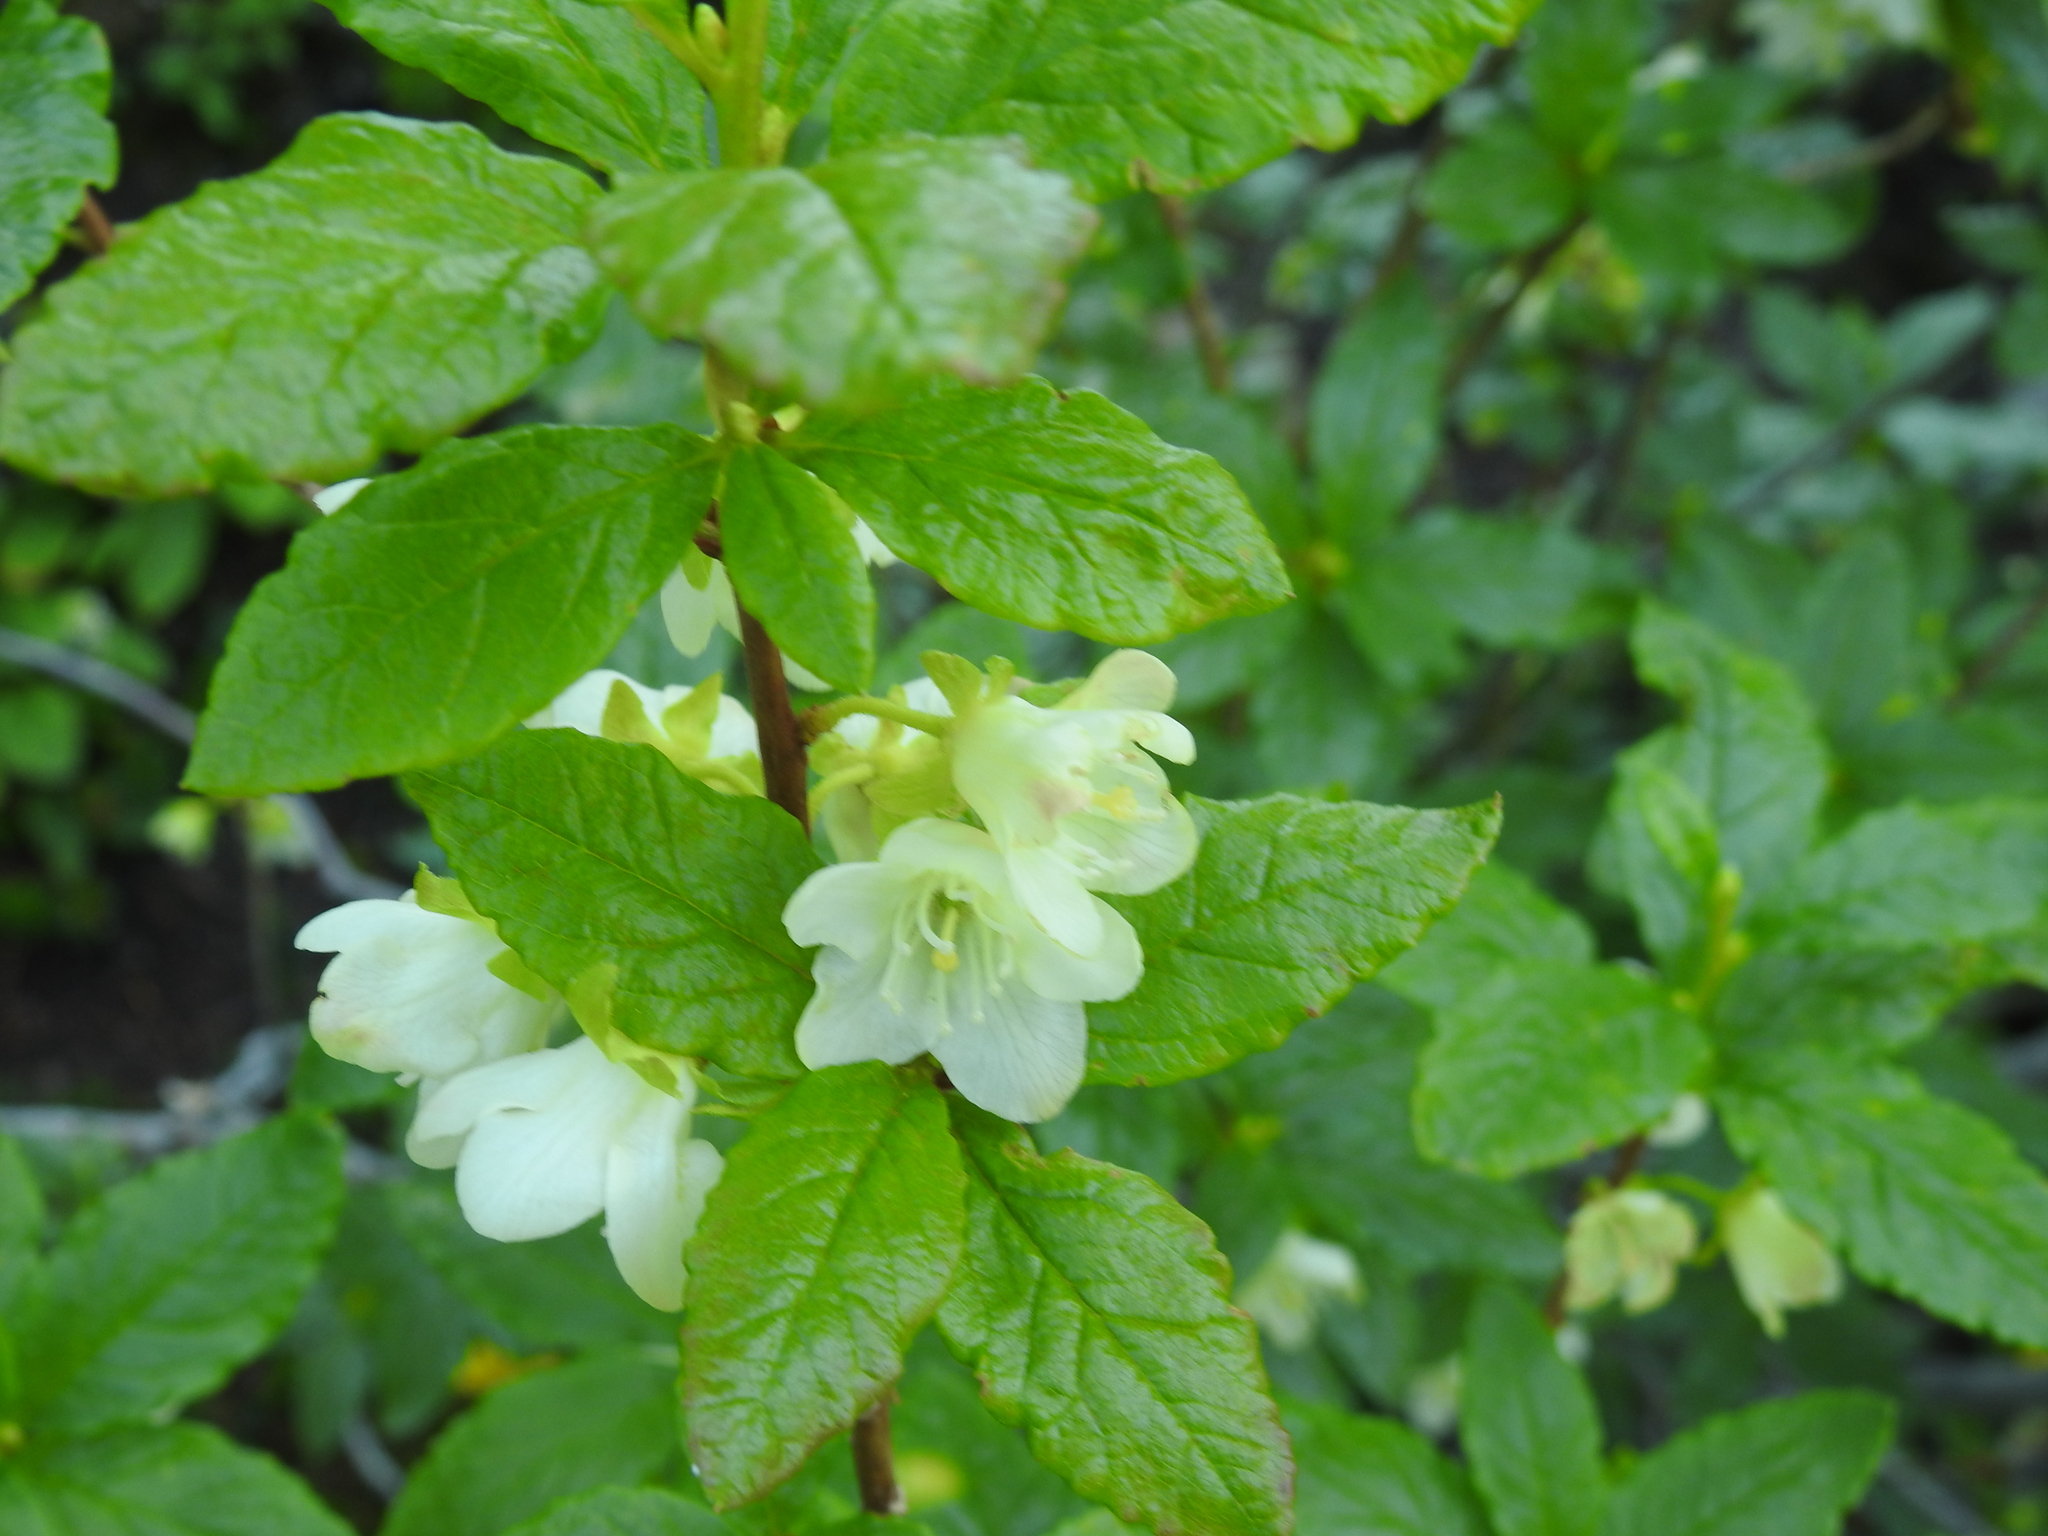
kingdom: Plantae
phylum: Tracheophyta
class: Magnoliopsida
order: Ericales
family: Ericaceae
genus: Rhododendron
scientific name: Rhododendron albiflorum
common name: White rhododendron
